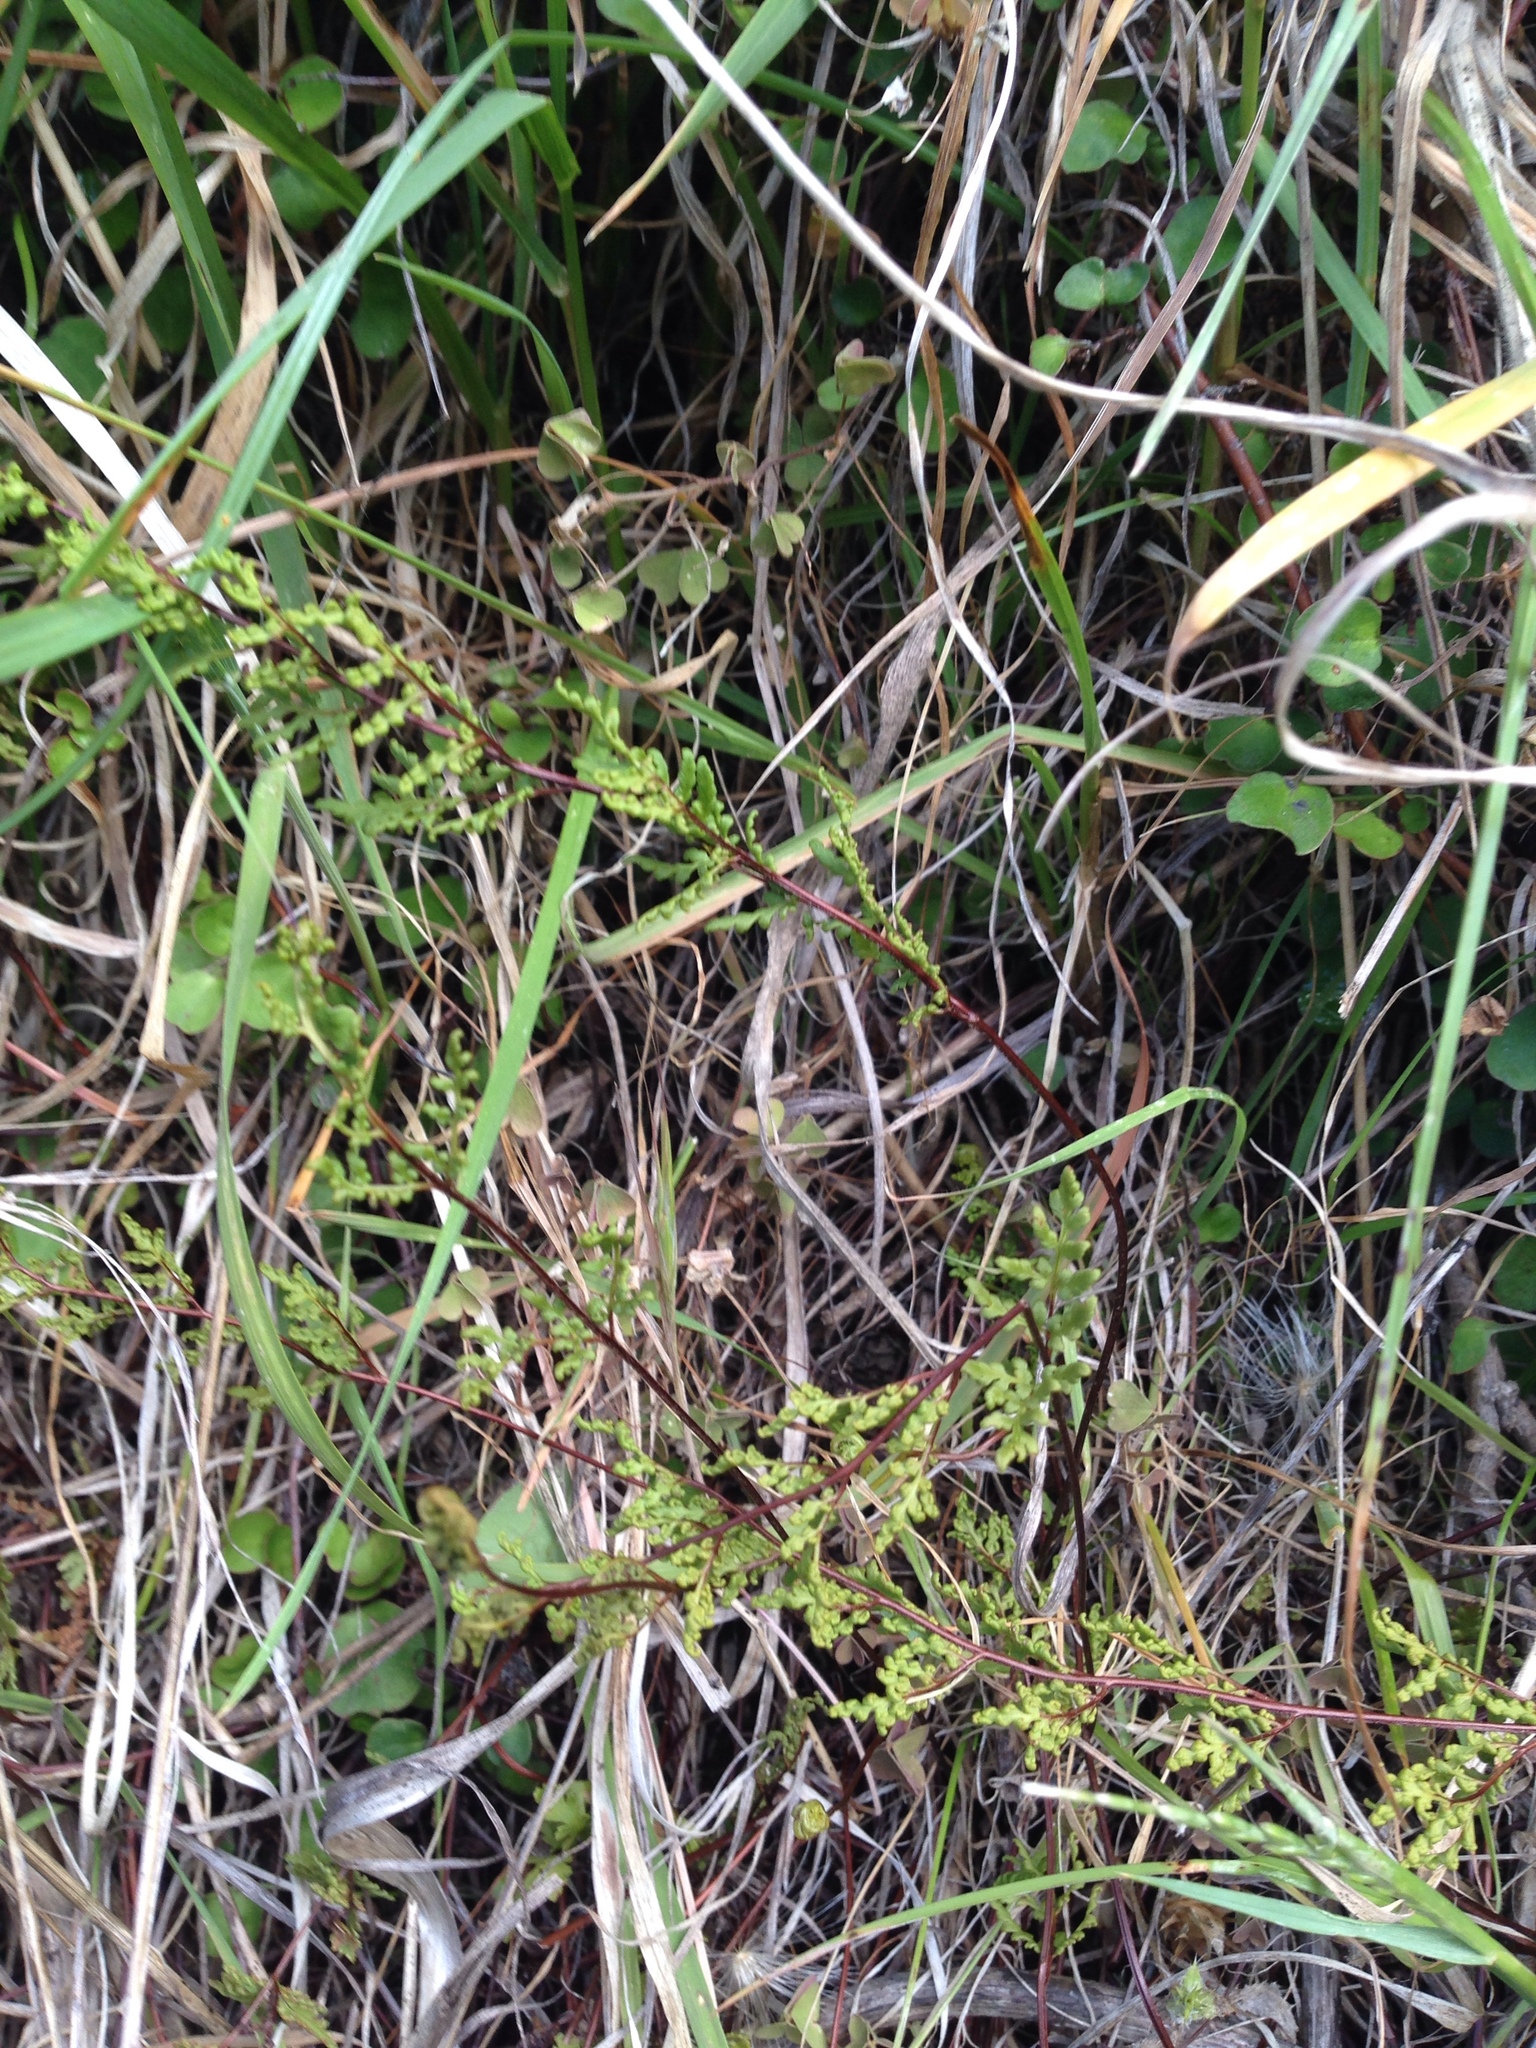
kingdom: Plantae
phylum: Tracheophyta
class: Polypodiopsida
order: Polypodiales
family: Pteridaceae
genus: Cheilanthes
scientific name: Cheilanthes sieberi
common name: Mulga fern
